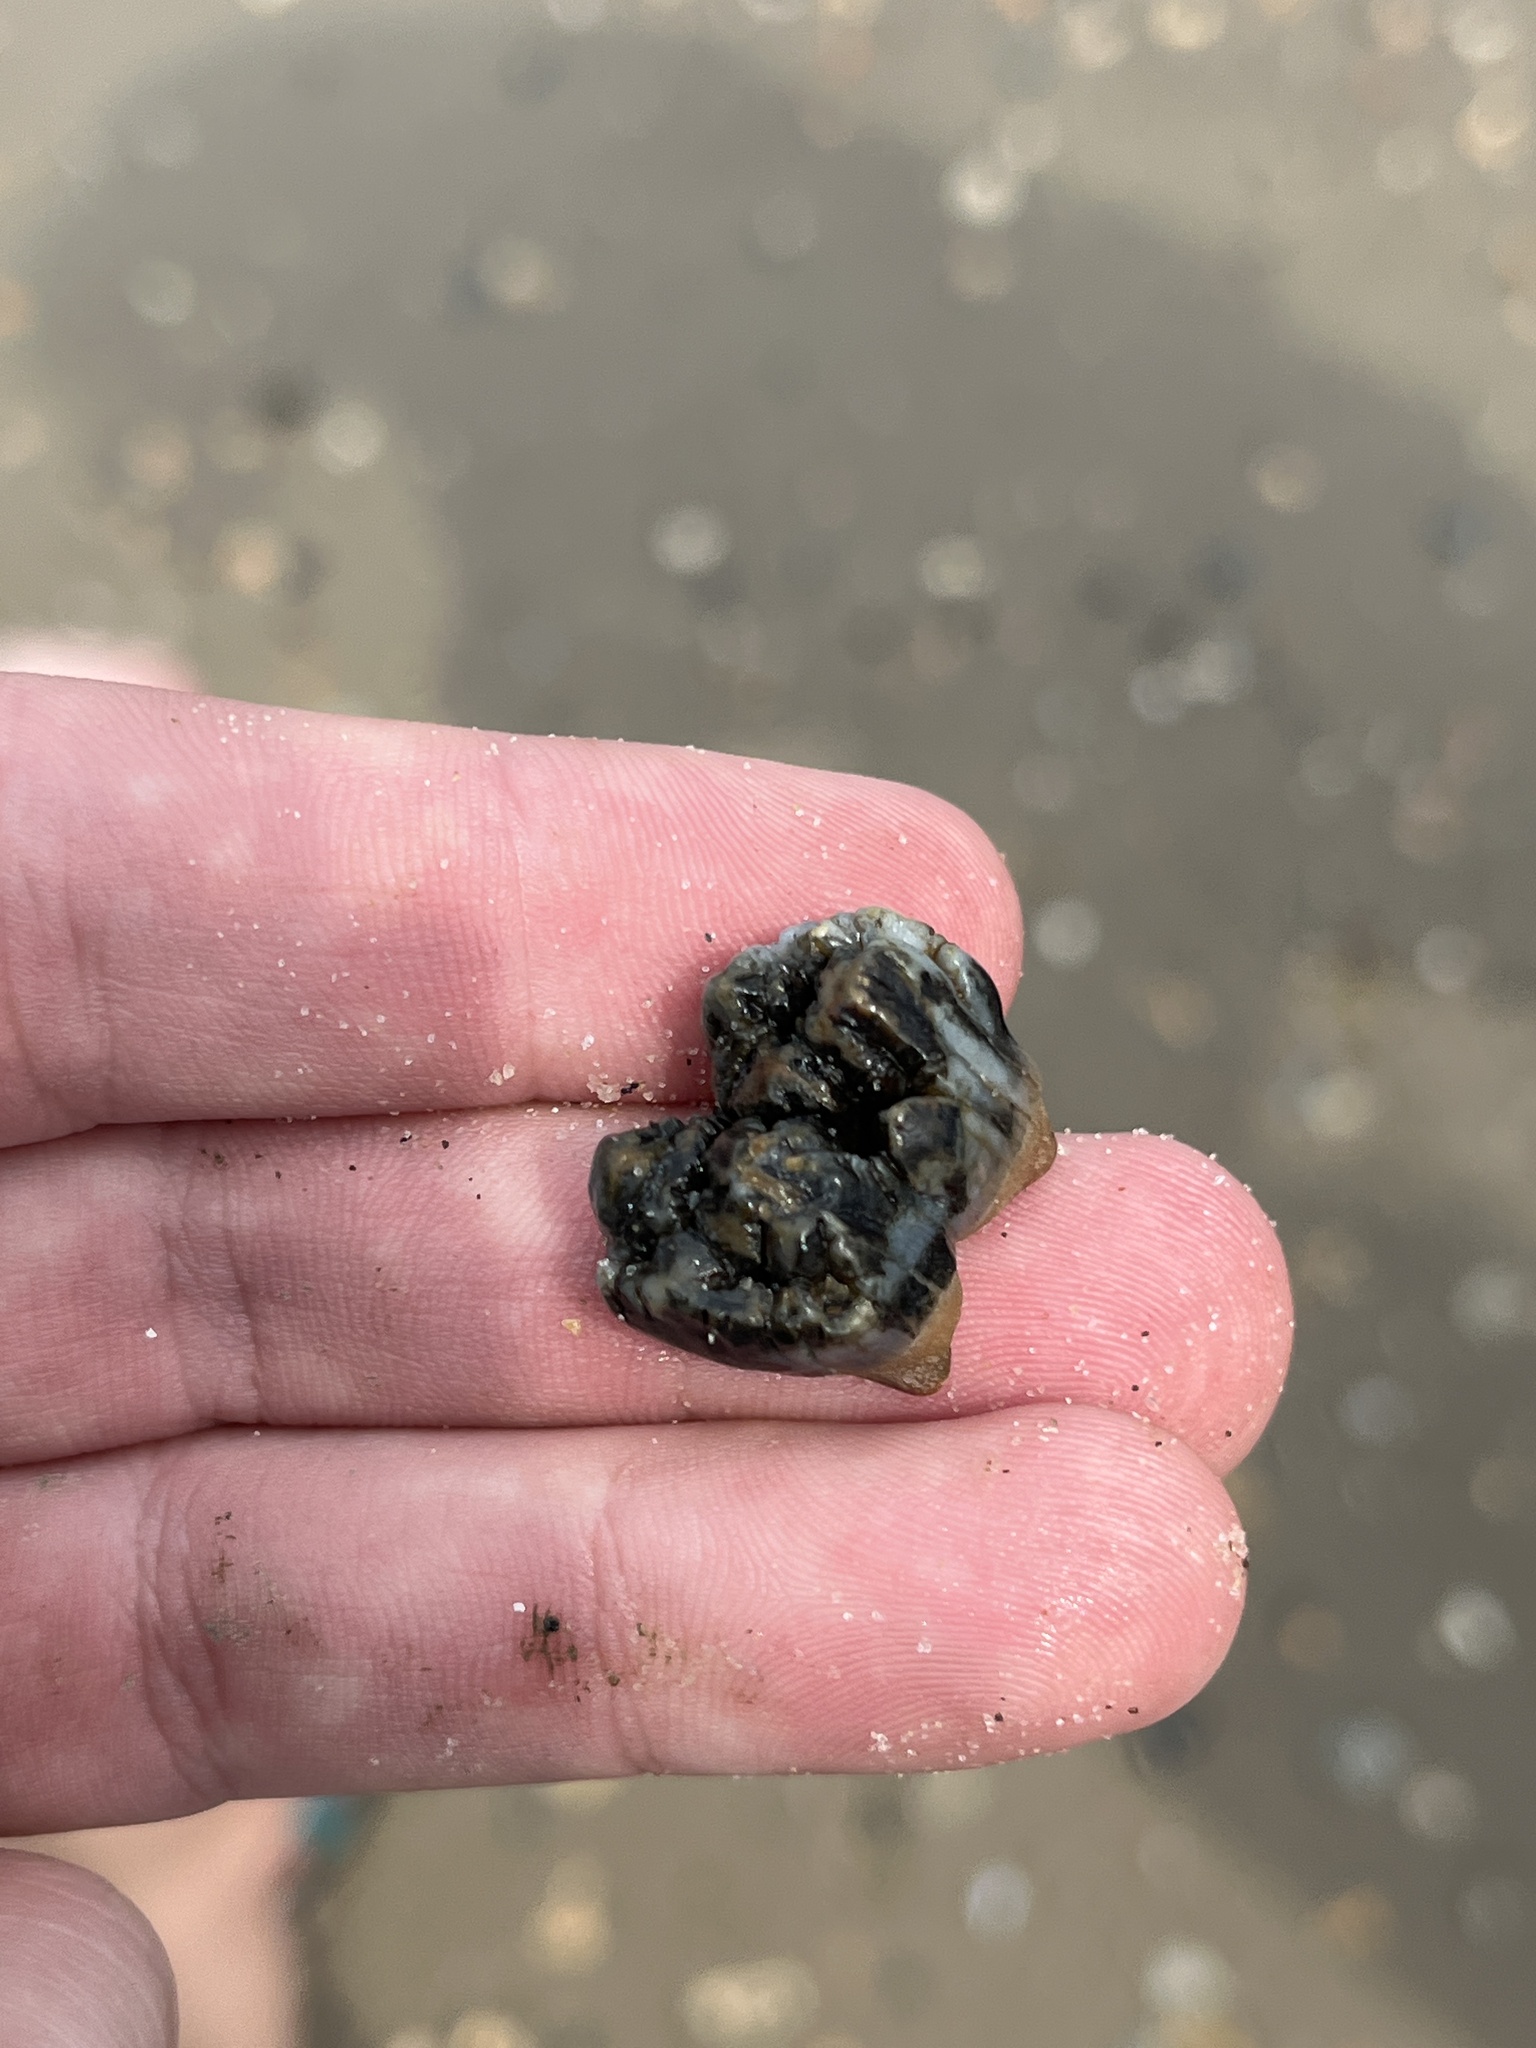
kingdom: Animalia
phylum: Chordata
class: Mammalia
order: Artiodactyla
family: Suidae
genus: Sus
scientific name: Sus scrofa
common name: Wild boar
